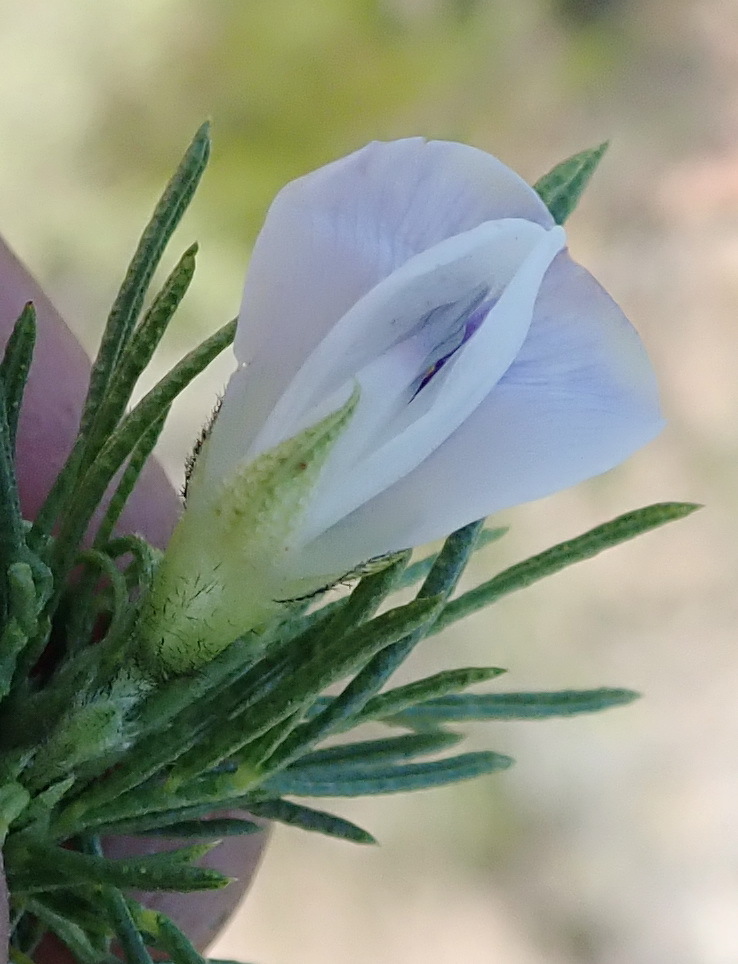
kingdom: Plantae
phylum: Tracheophyta
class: Magnoliopsida
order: Fabales
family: Fabaceae
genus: Psoralea
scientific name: Psoralea kougaensis
